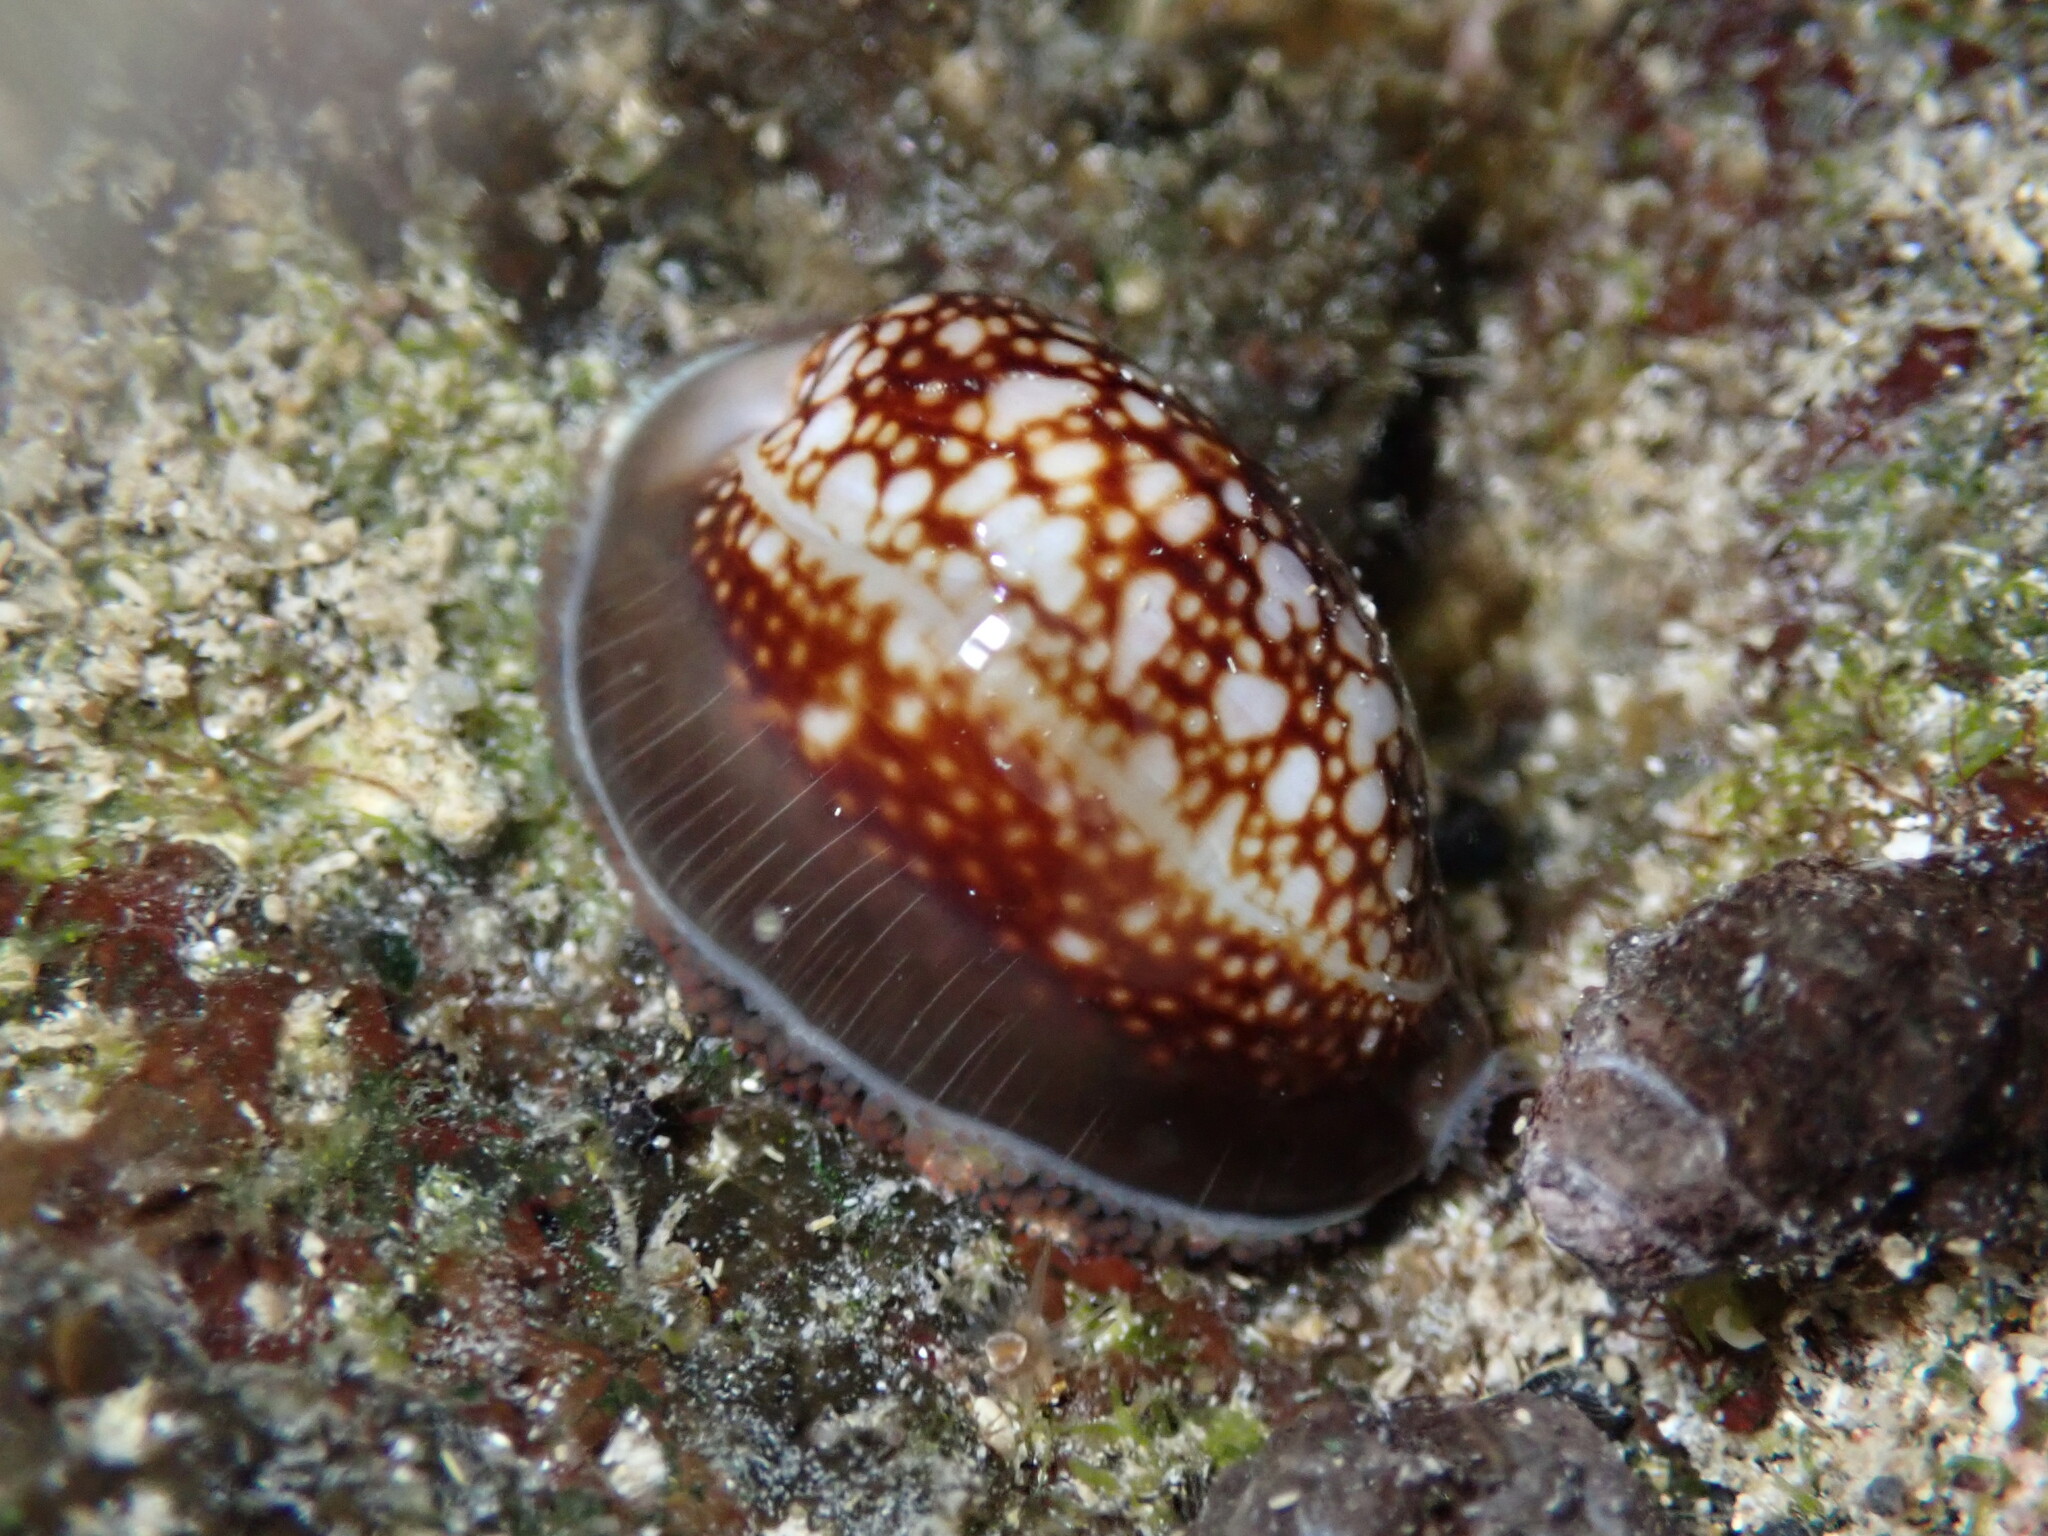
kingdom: Animalia
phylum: Mollusca
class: Gastropoda
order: Littorinimorpha
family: Cypraeidae
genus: Monetaria
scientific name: Monetaria caputophidii
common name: Snake's head cowry
